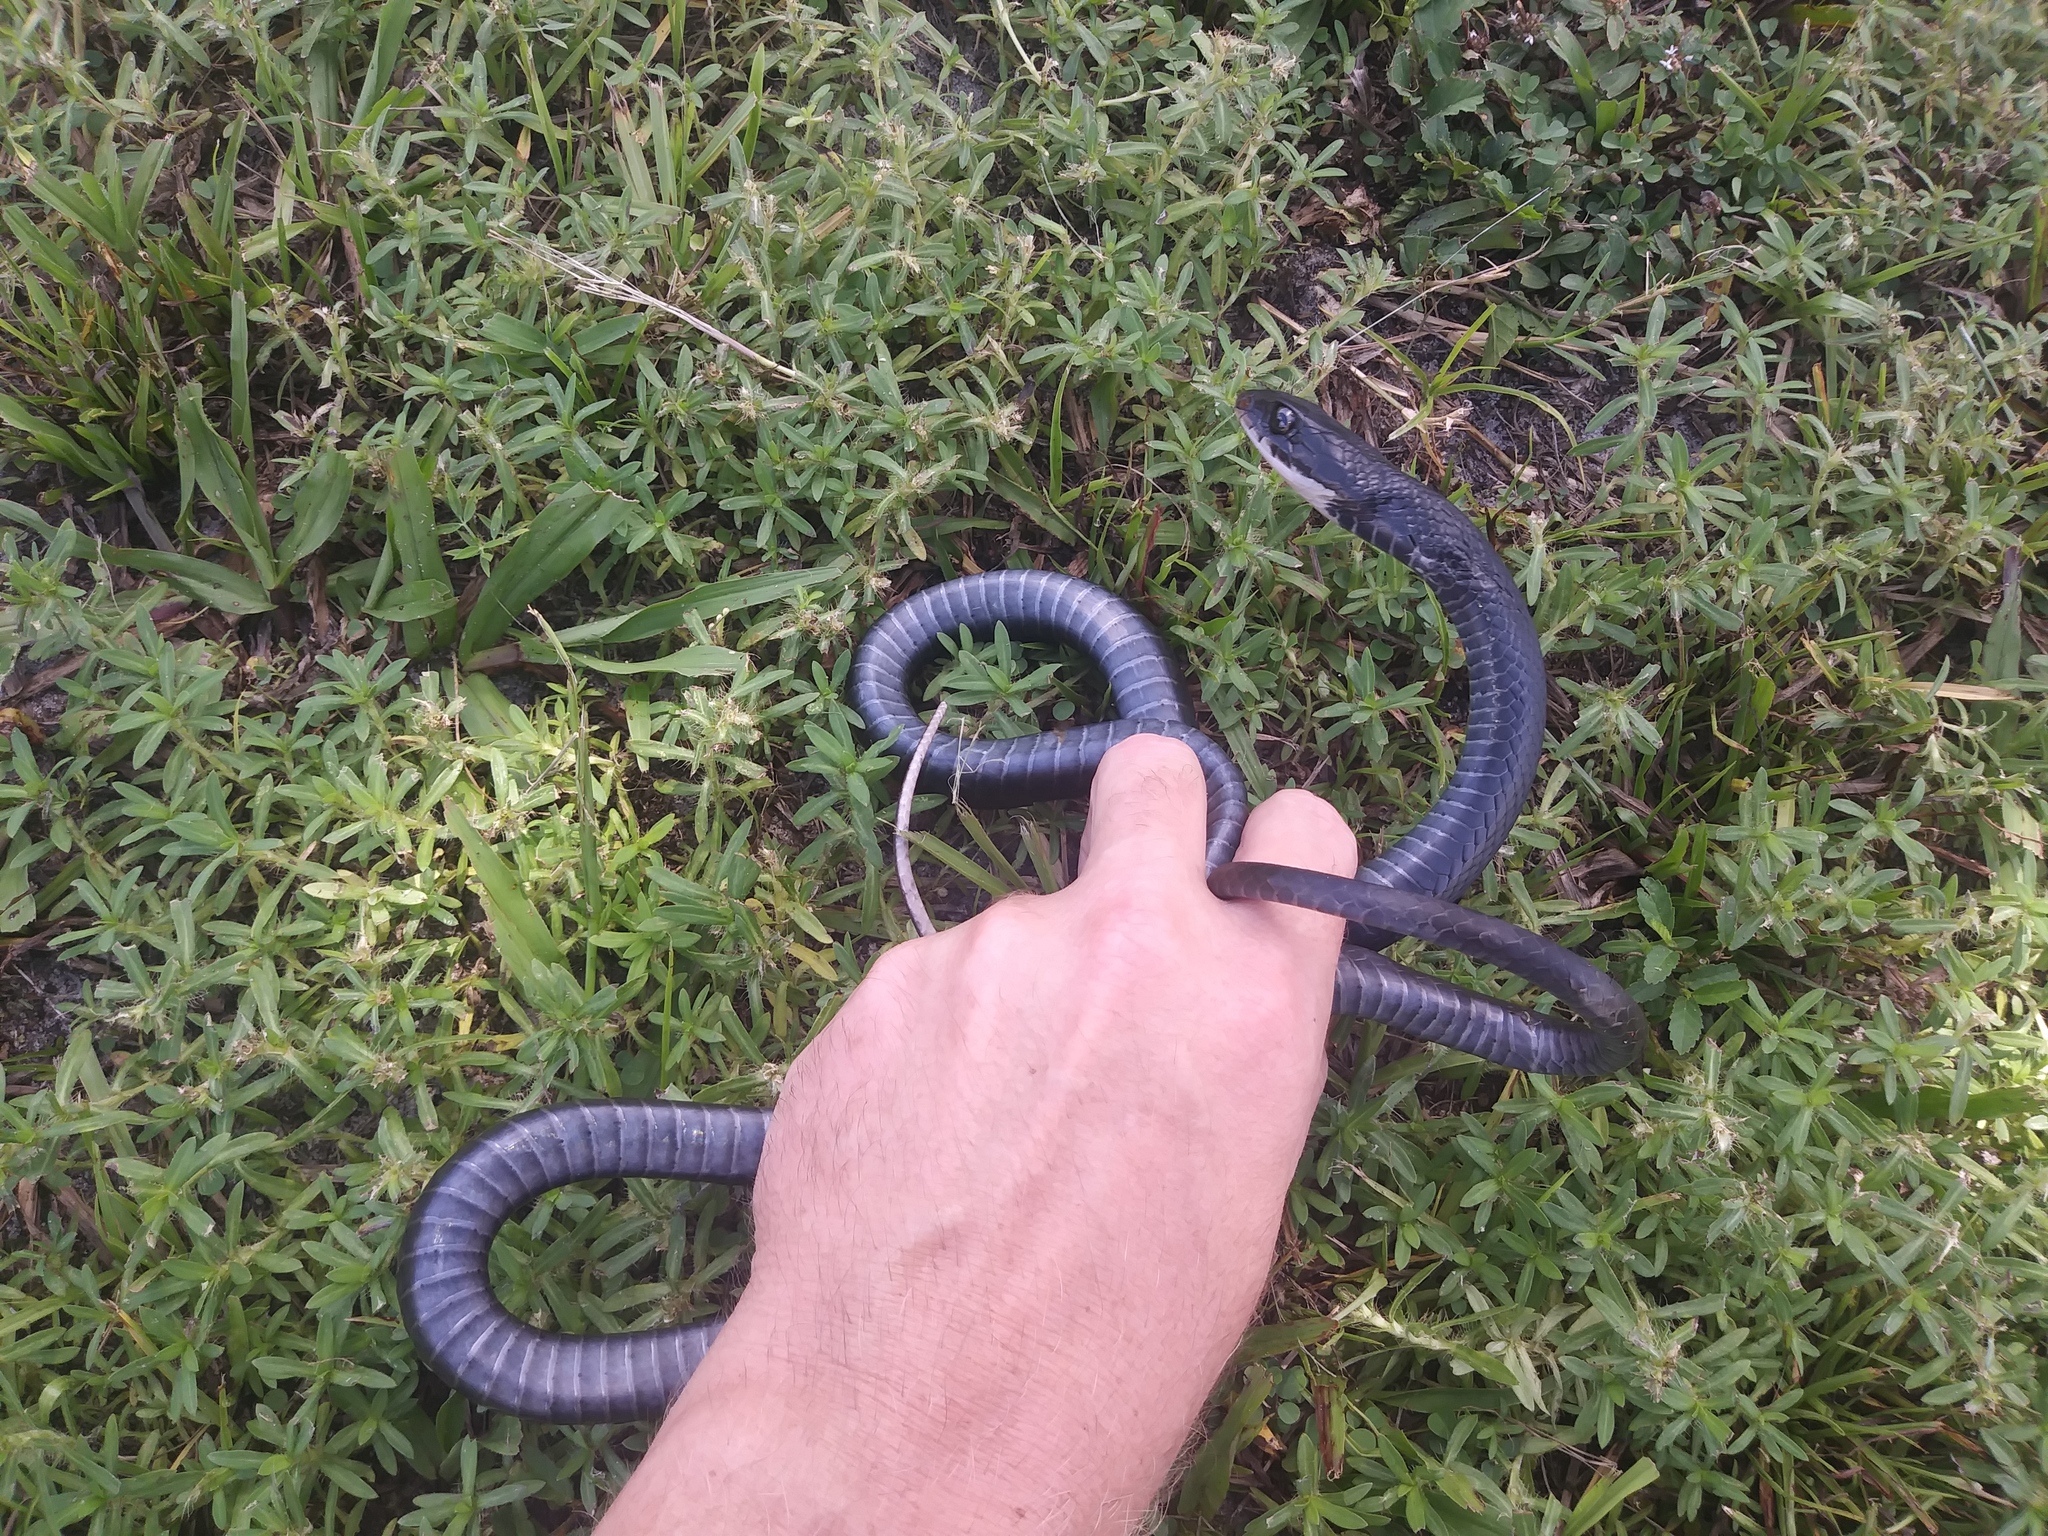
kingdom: Animalia
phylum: Chordata
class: Squamata
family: Colubridae
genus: Coluber
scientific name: Coluber constrictor
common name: Eastern racer
